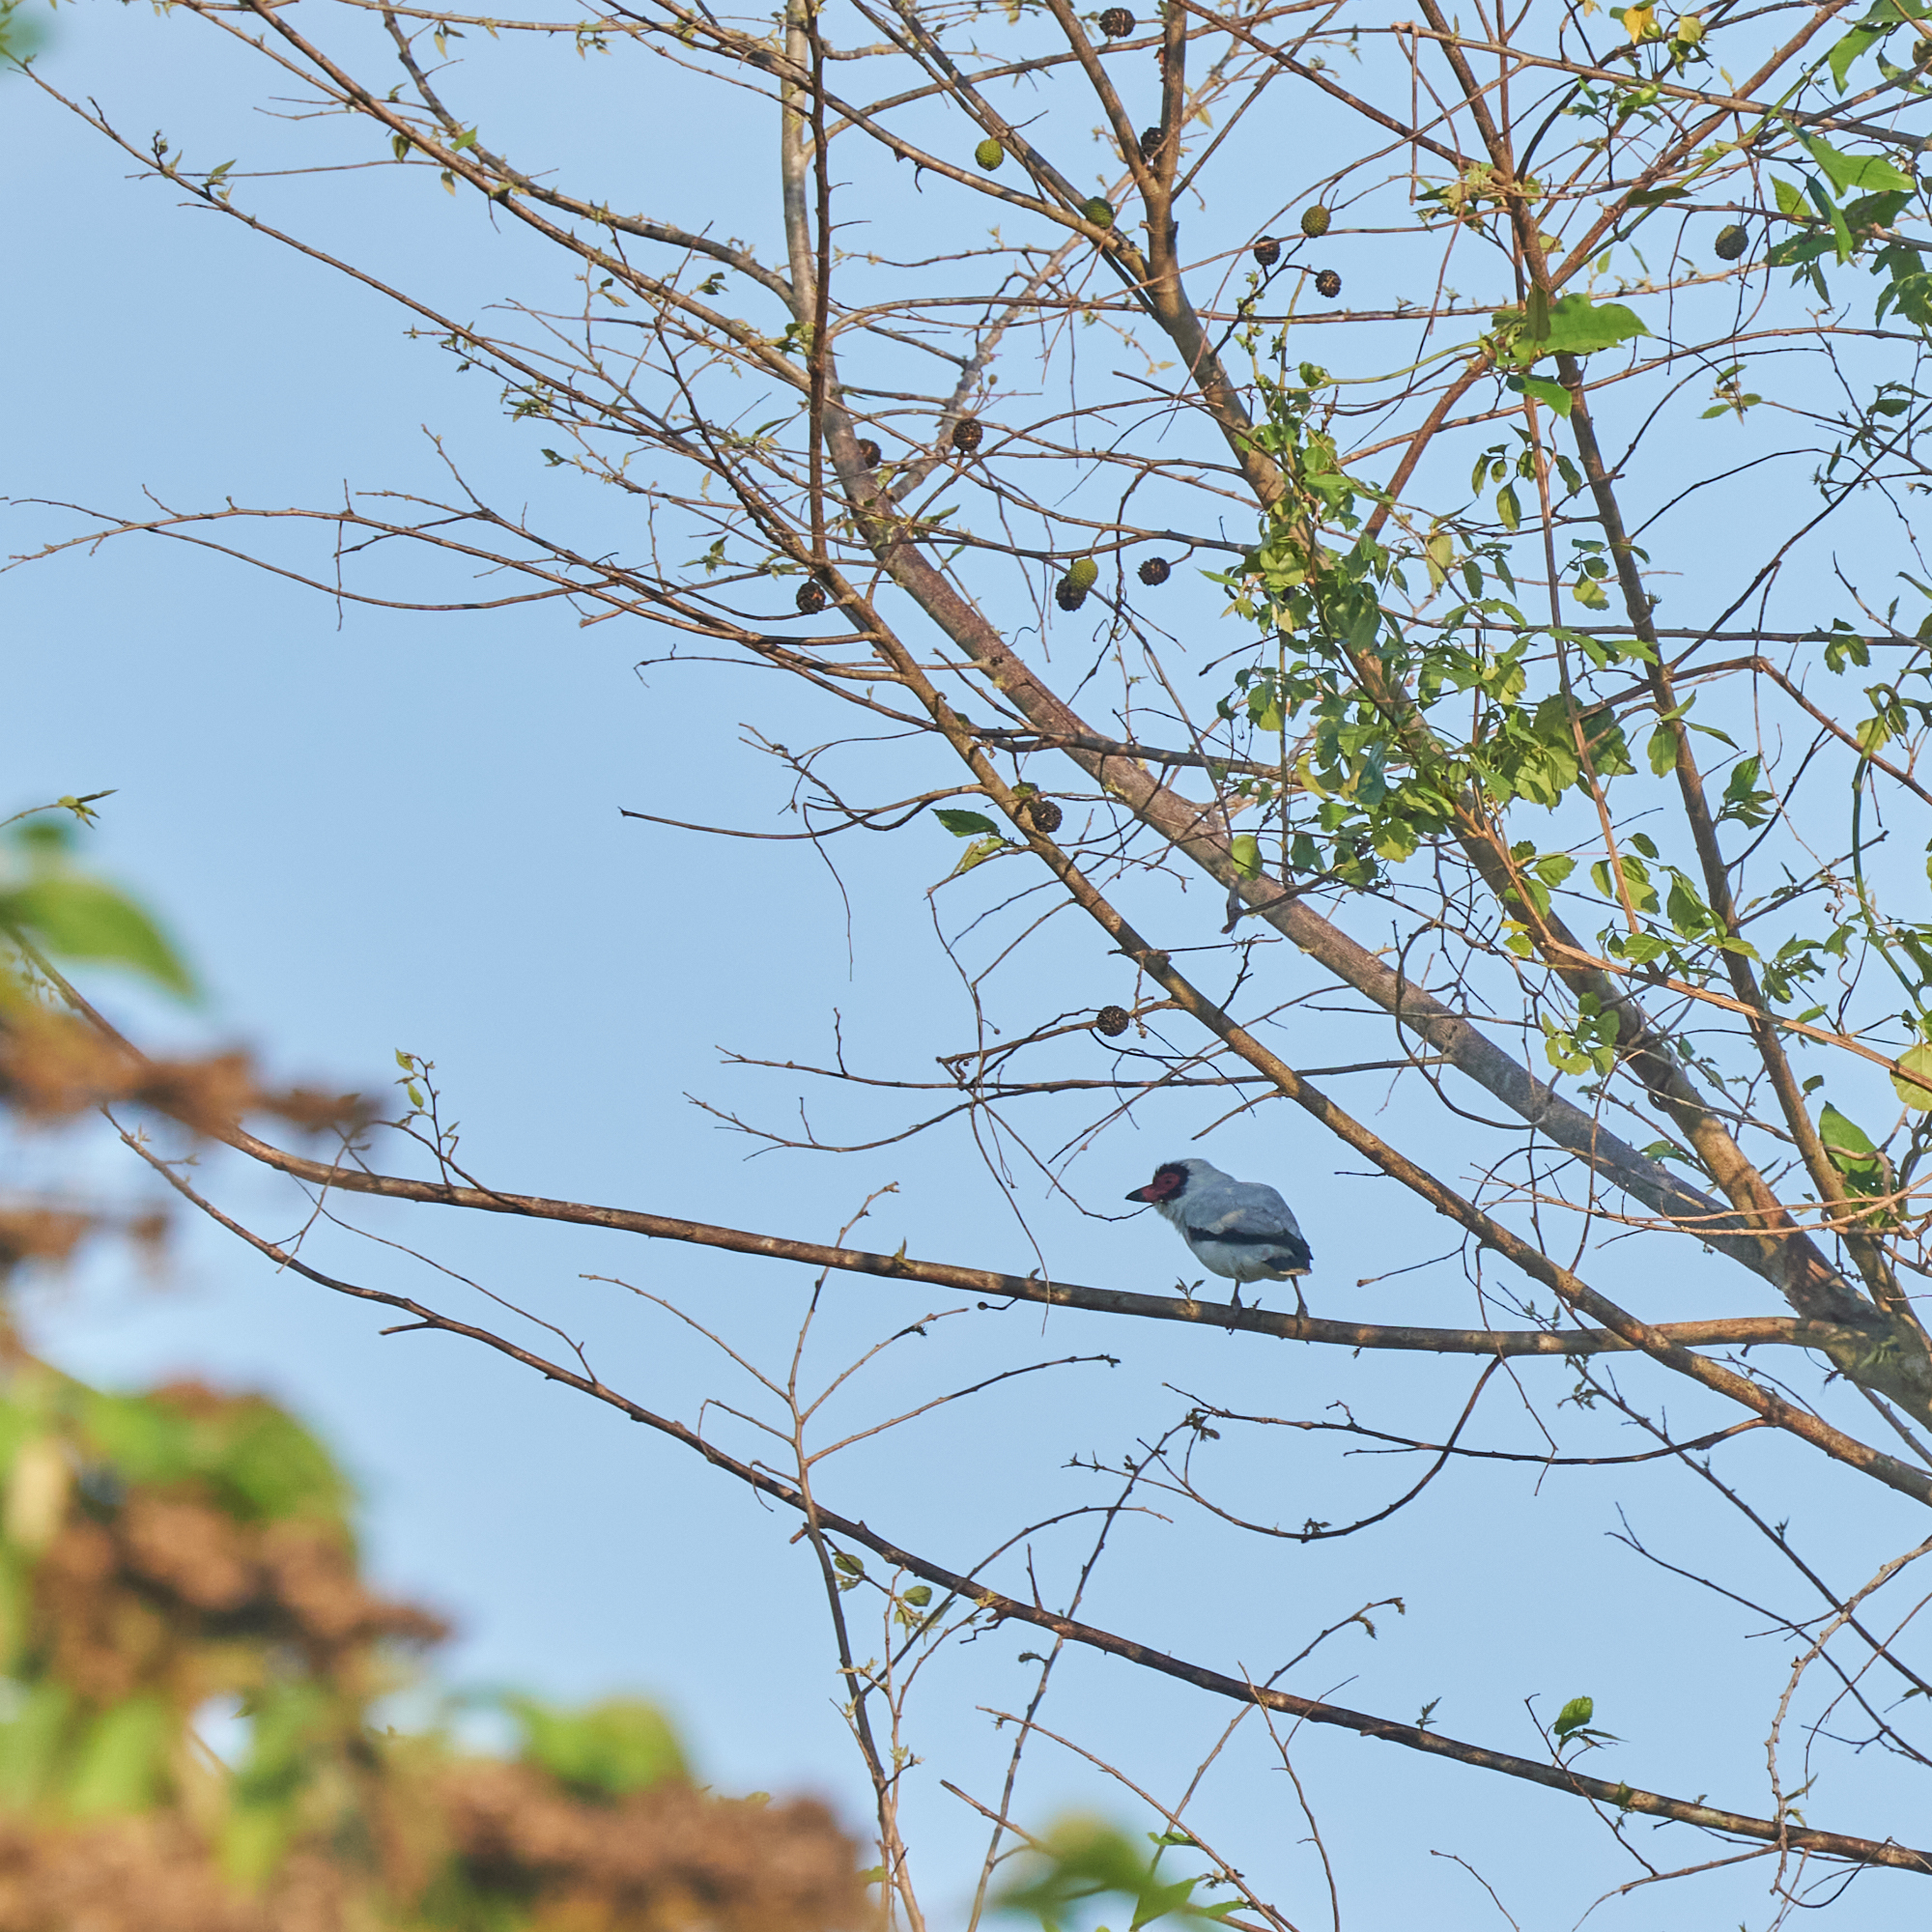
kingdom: Animalia
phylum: Chordata
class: Aves
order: Passeriformes
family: Cotingidae
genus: Tityra
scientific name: Tityra semifasciata
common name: Masked tityra
